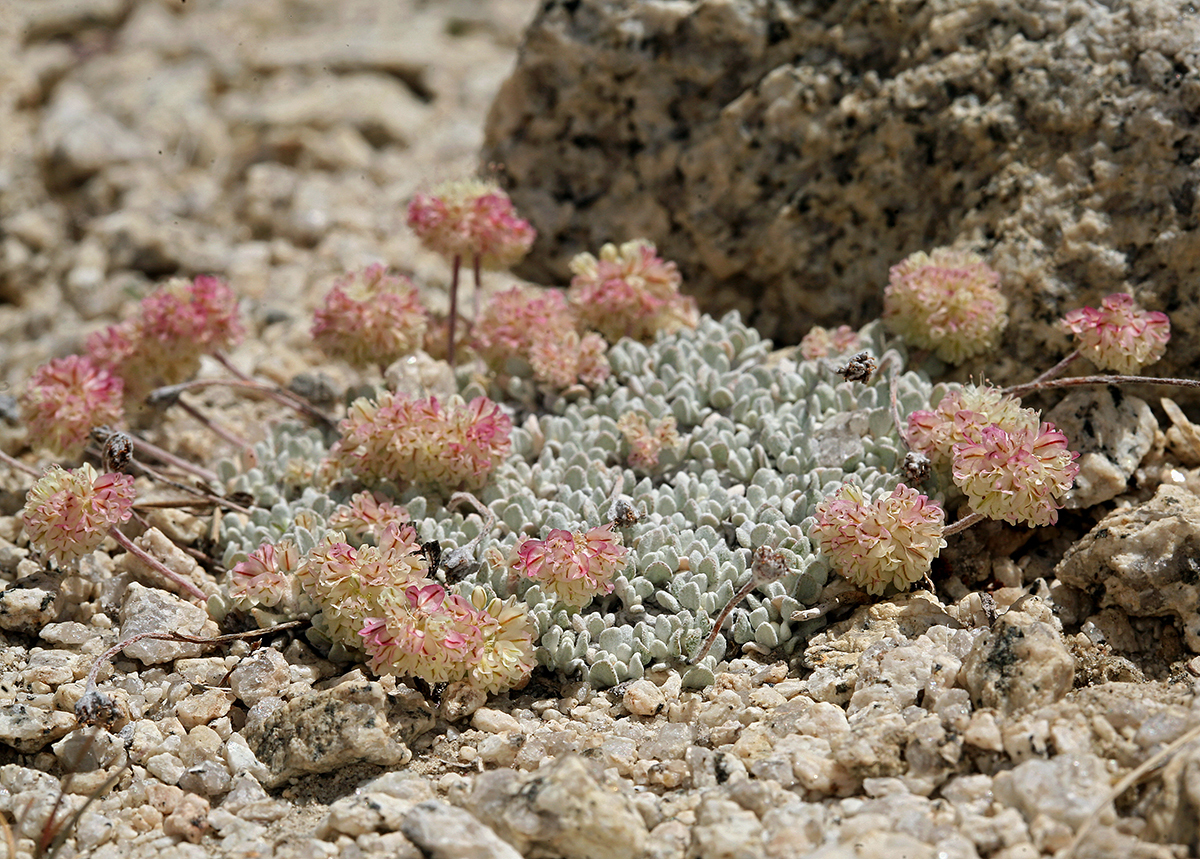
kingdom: Plantae
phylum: Tracheophyta
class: Magnoliopsida
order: Caryophyllales
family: Polygonaceae
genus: Eriogonum
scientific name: Eriogonum ovalifolium
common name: Cushion buckwheat
